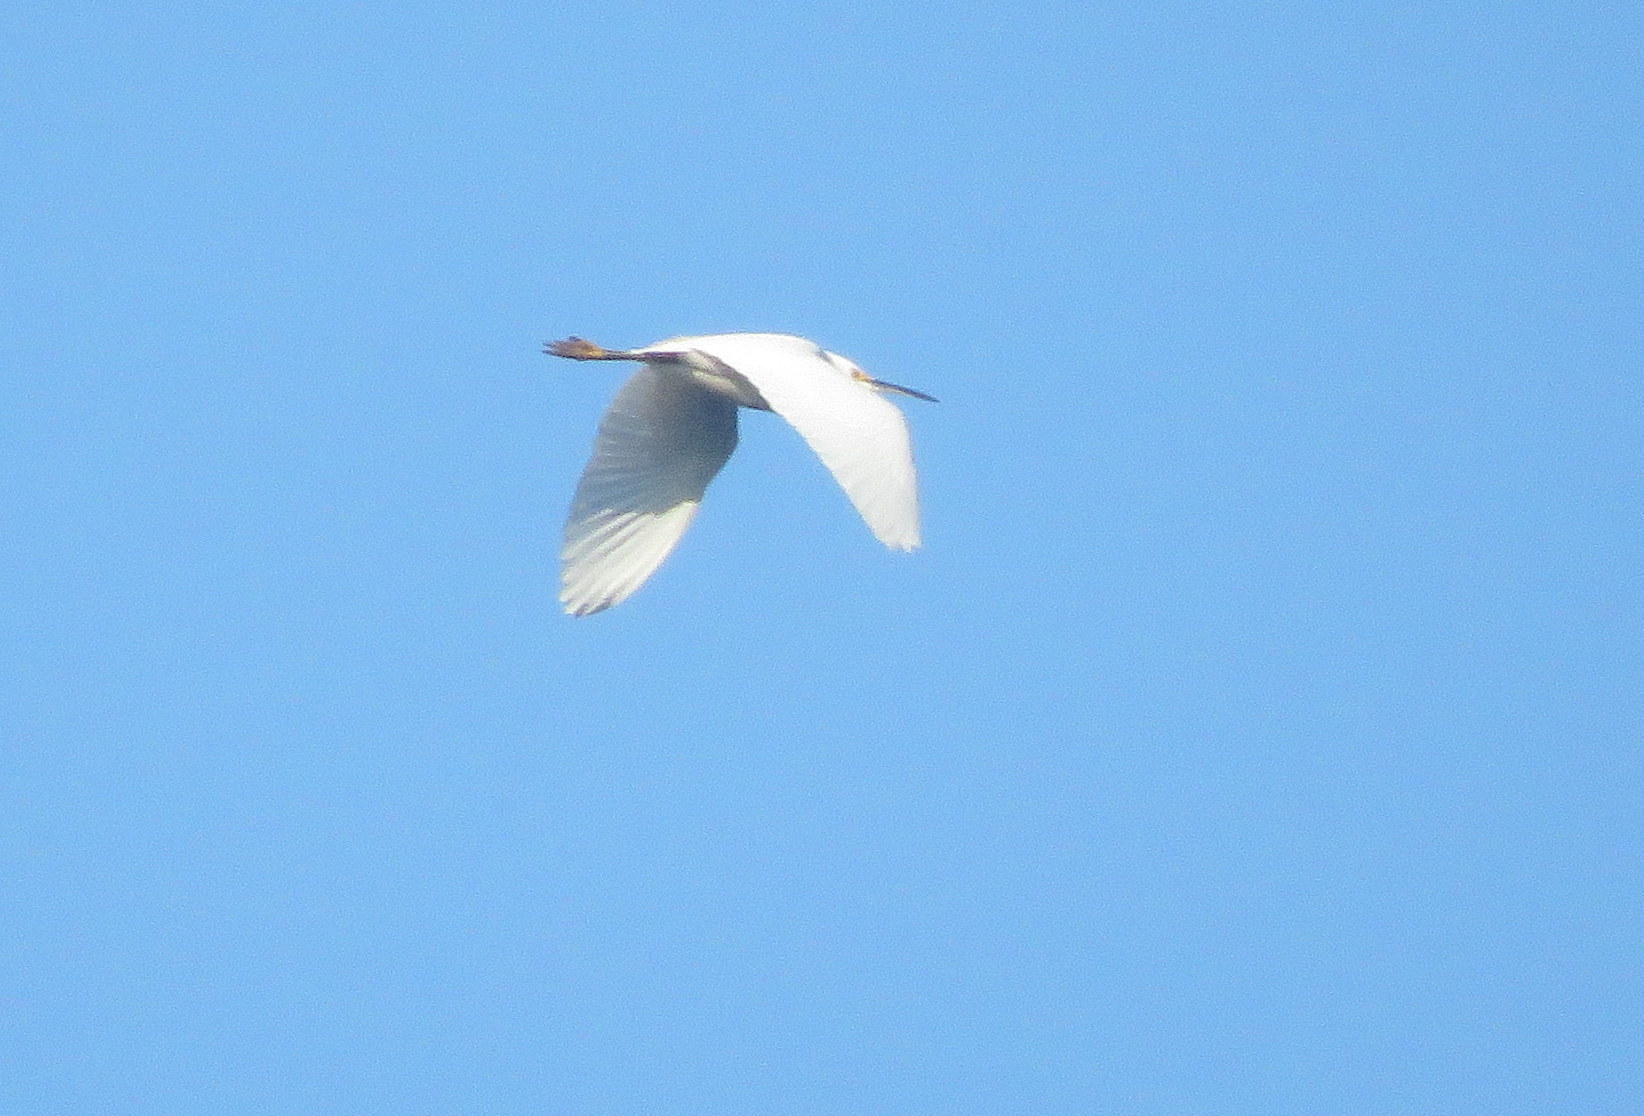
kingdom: Animalia
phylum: Chordata
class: Aves
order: Pelecaniformes
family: Ardeidae
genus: Egretta
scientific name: Egretta thula
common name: Snowy egret
